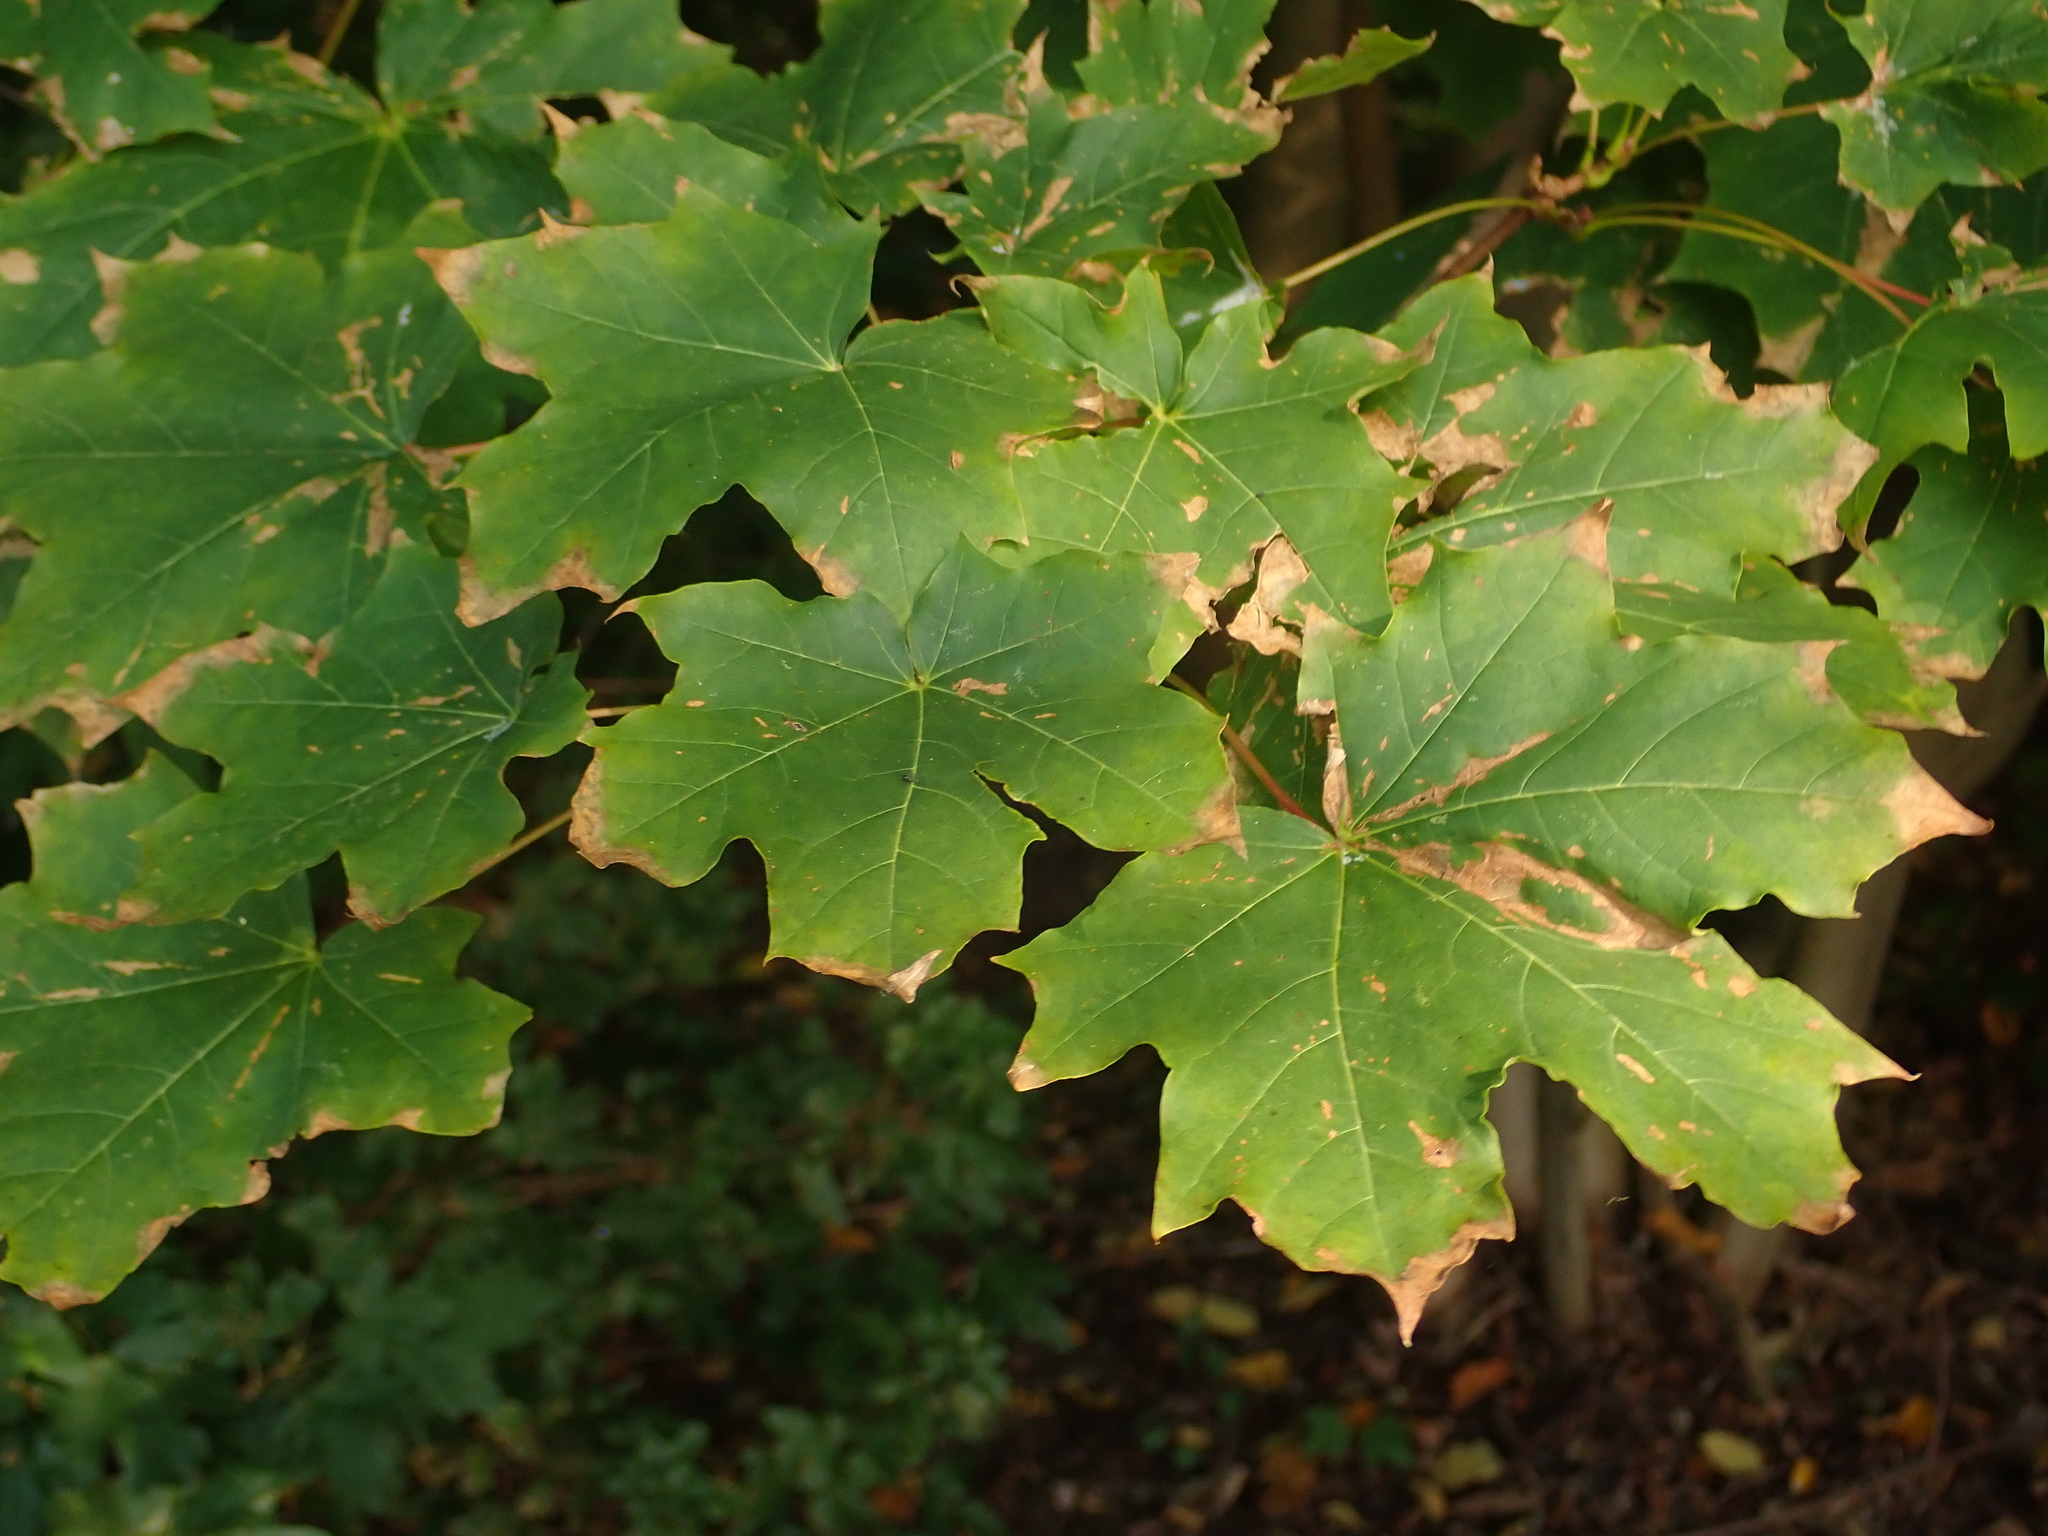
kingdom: Plantae
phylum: Tracheophyta
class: Magnoliopsida
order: Sapindales
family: Sapindaceae
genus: Acer
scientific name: Acer platanoides
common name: Norway maple
